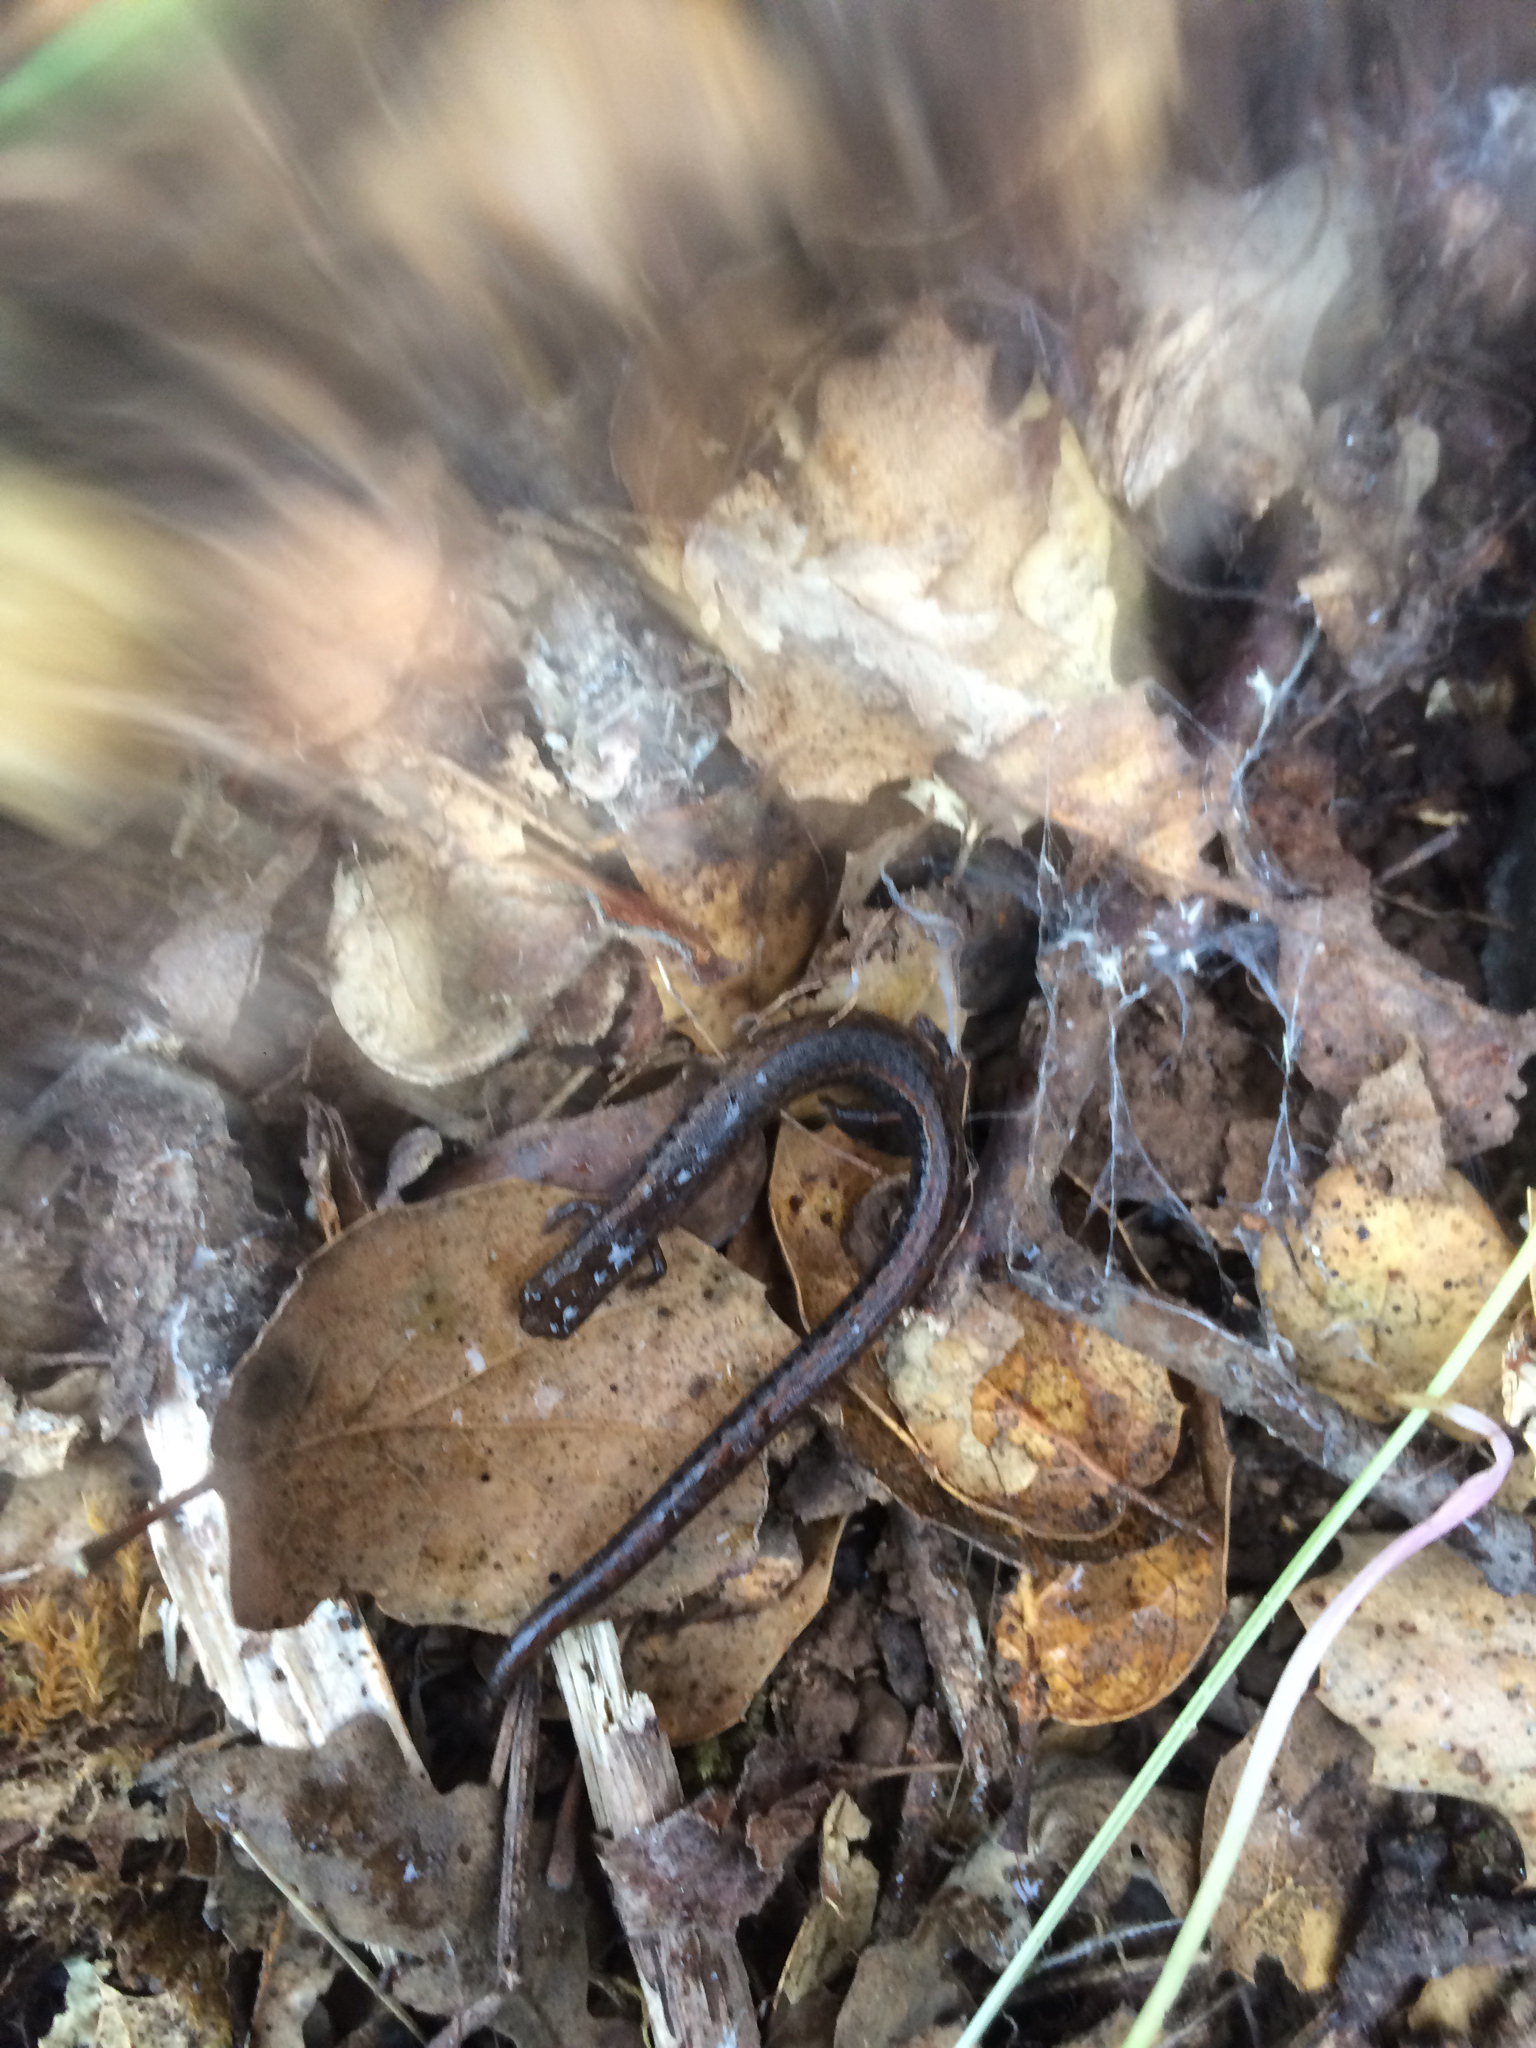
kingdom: Animalia
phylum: Chordata
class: Amphibia
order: Caudata
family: Plethodontidae
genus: Batrachoseps
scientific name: Batrachoseps attenuatus
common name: California slender salamander
